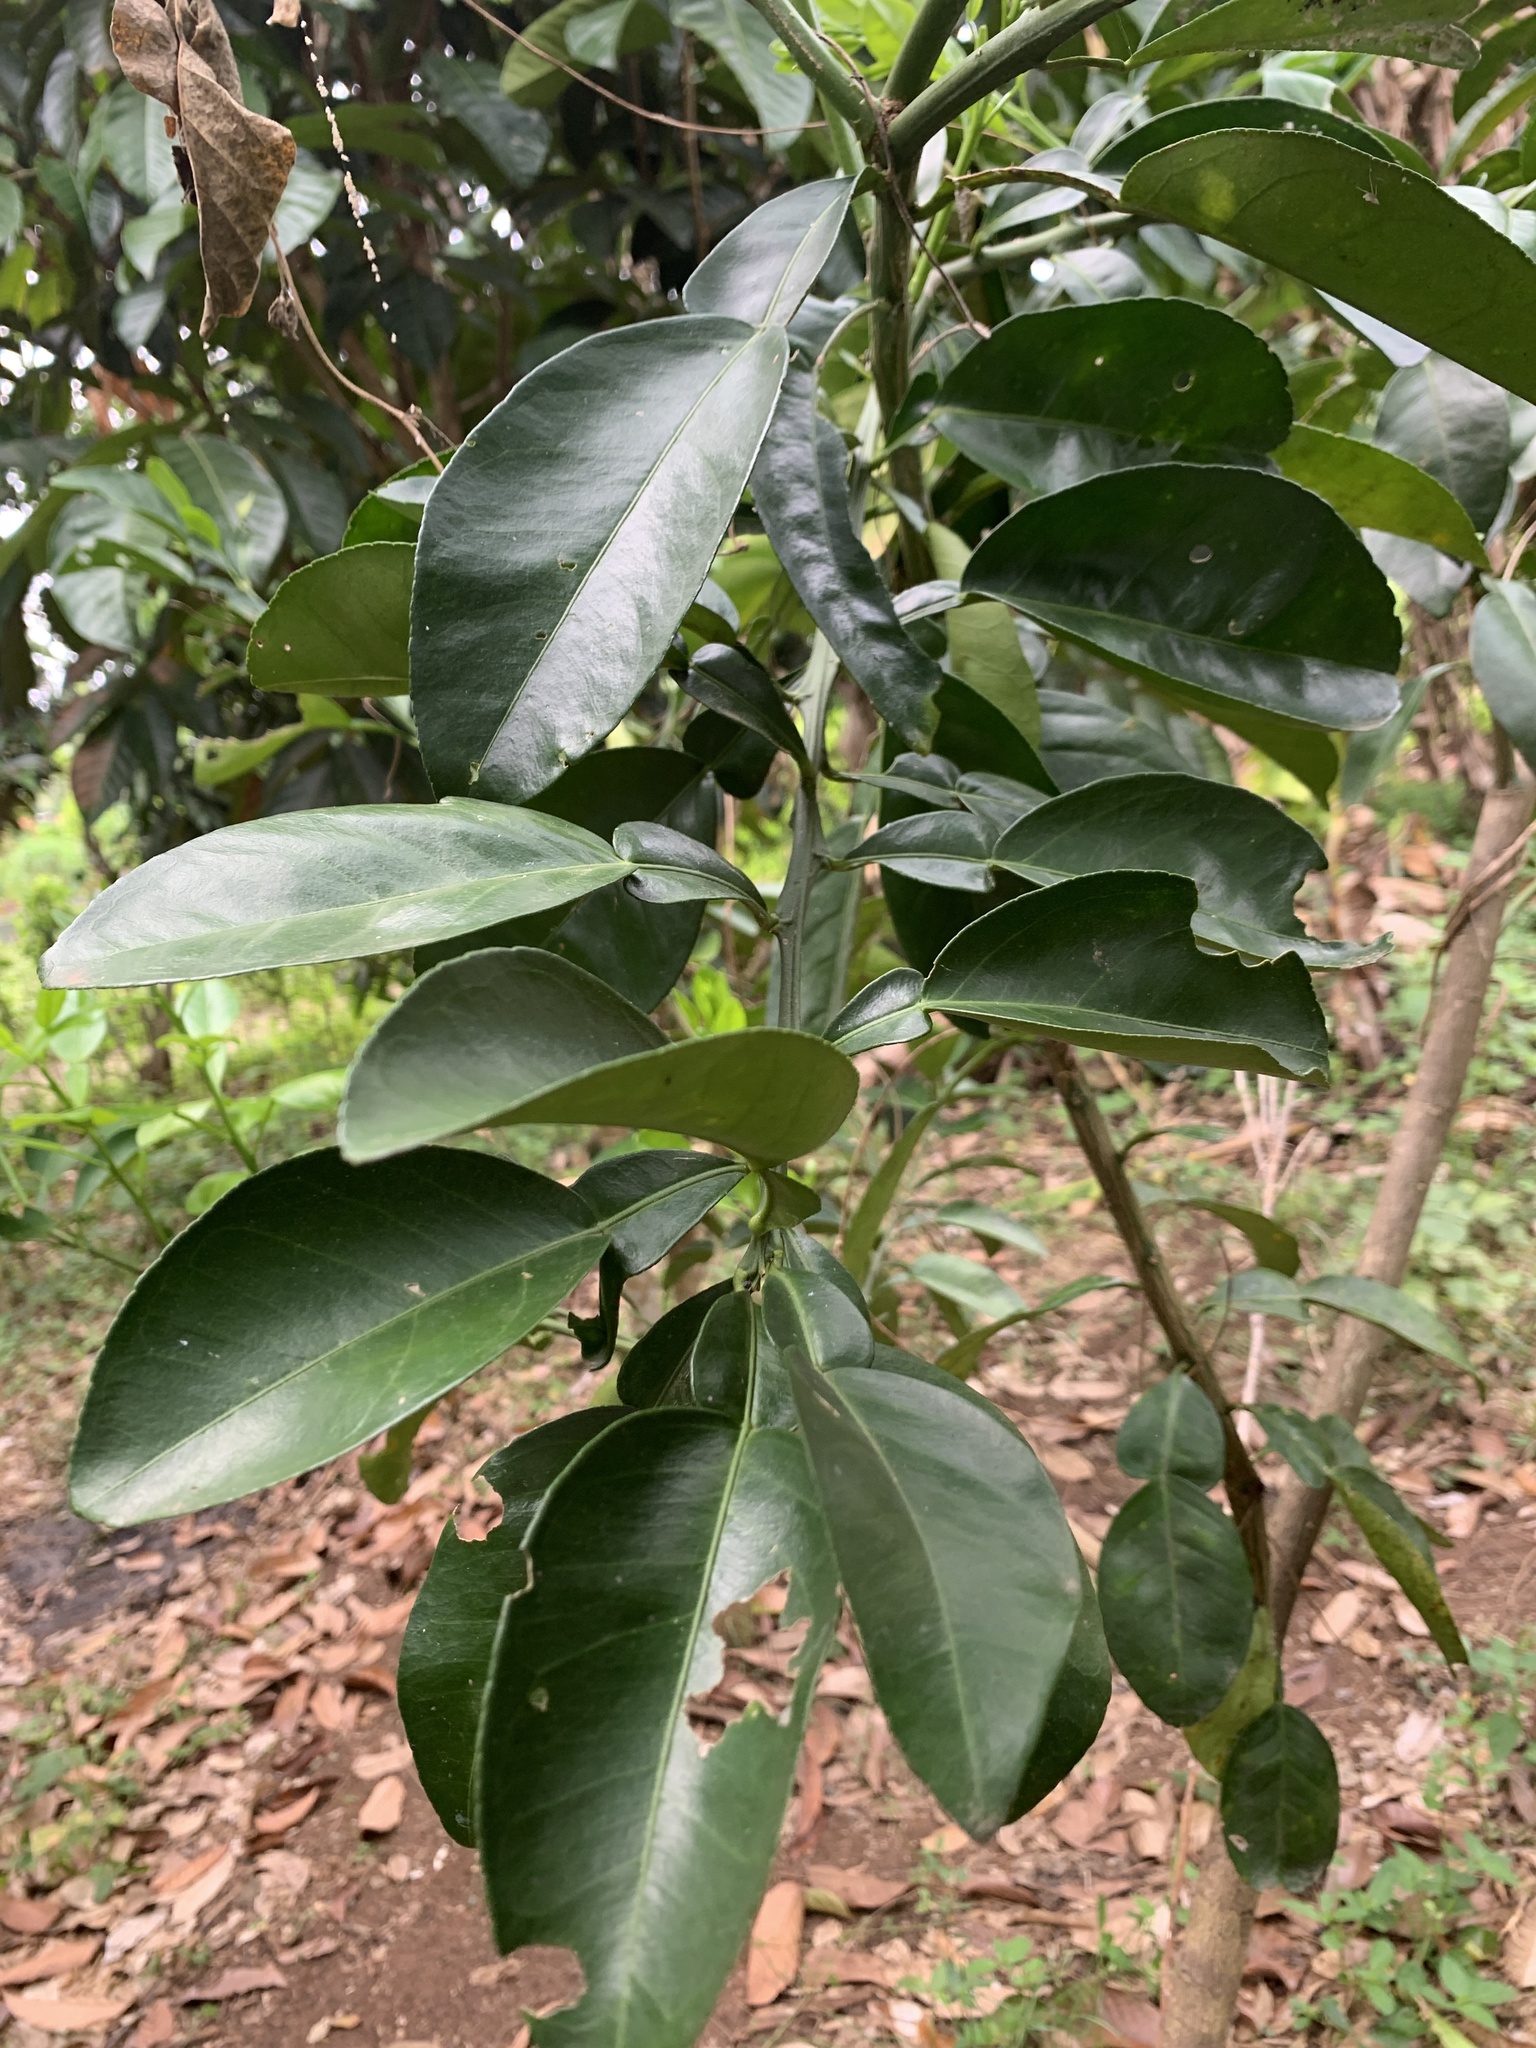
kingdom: Plantae
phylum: Tracheophyta
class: Magnoliopsida
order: Sapindales
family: Rutaceae
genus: Citrus
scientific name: Citrus maxima
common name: Pomelo
